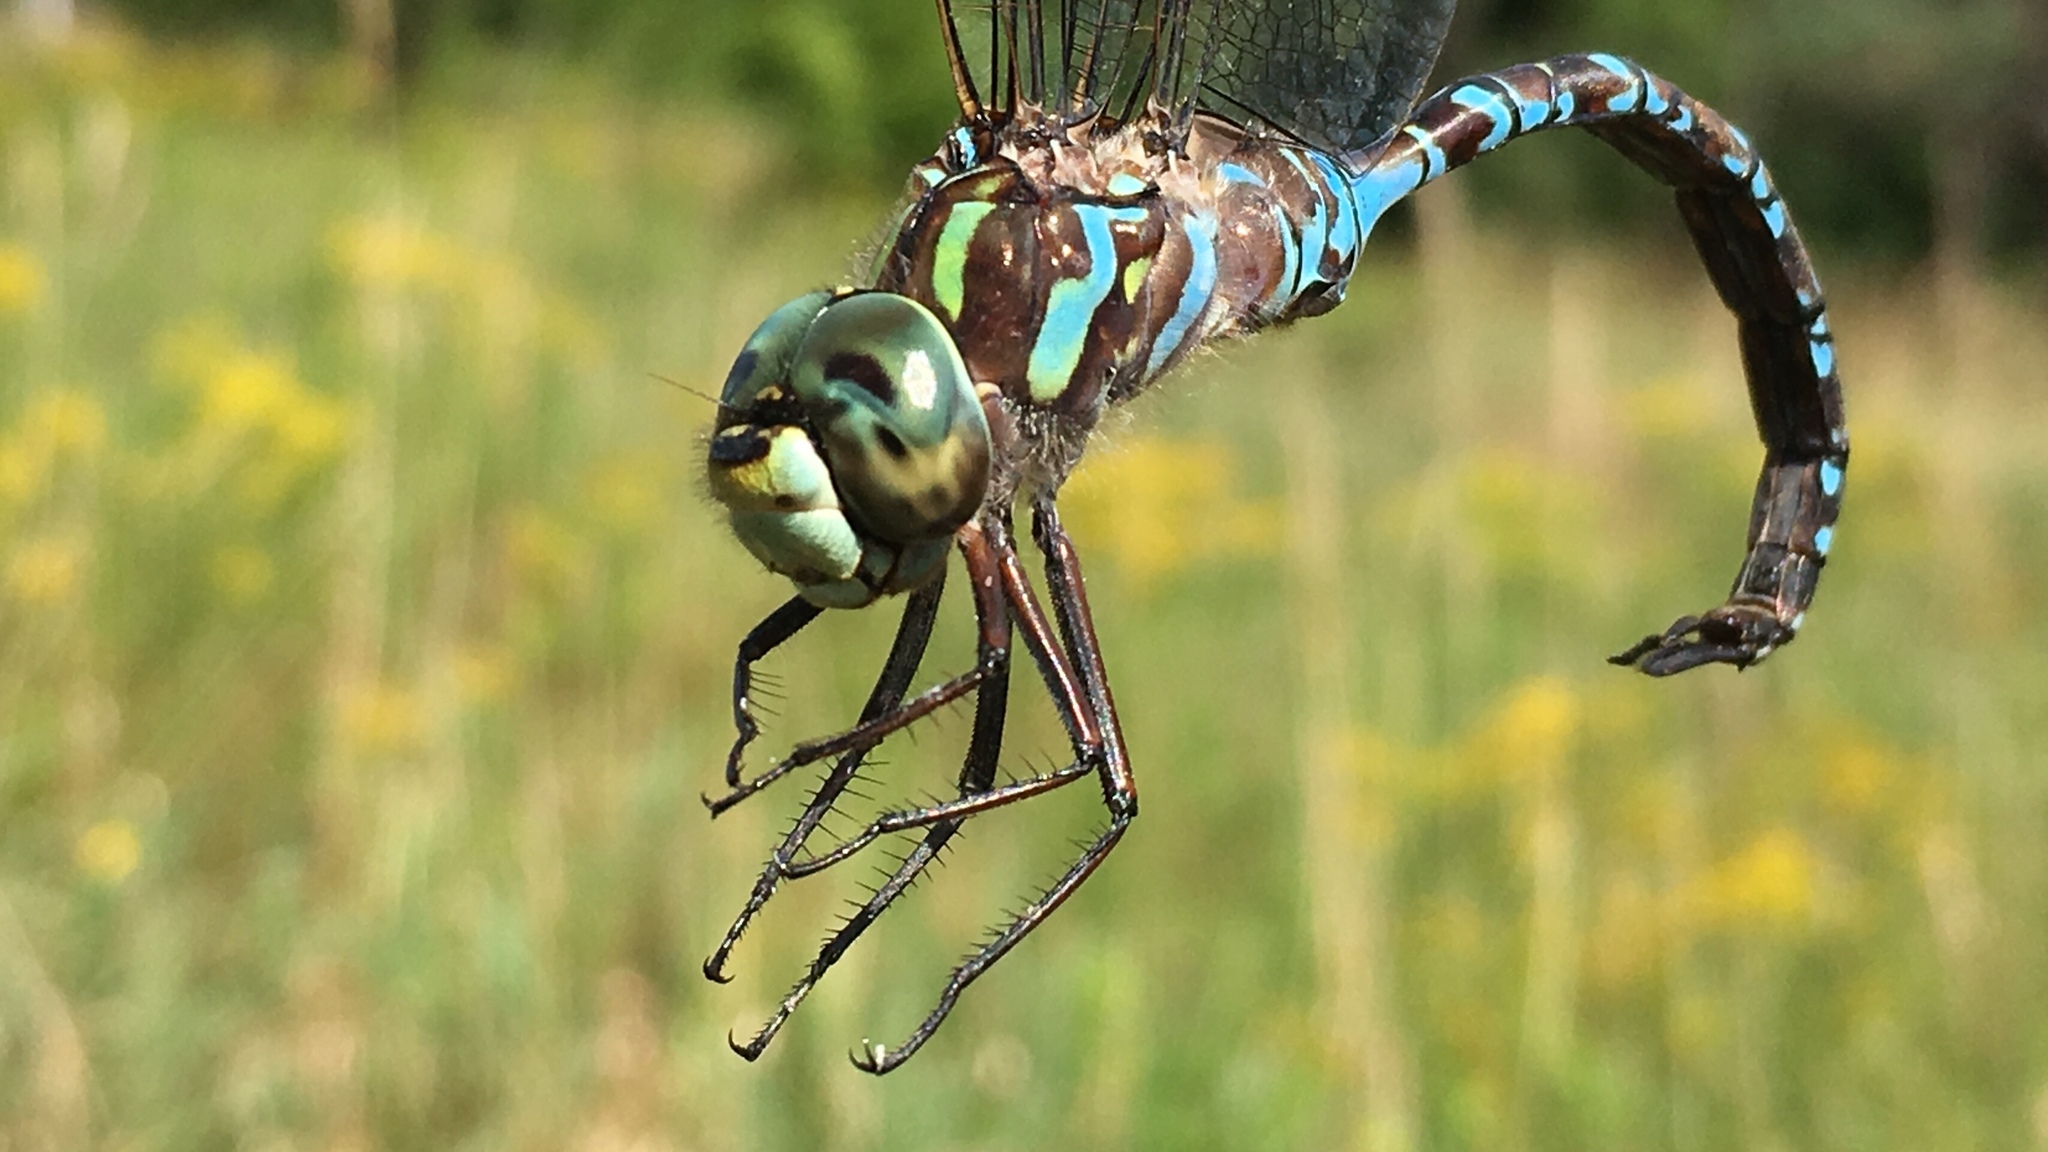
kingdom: Animalia
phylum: Arthropoda
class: Insecta
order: Odonata
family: Aeshnidae
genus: Aeshna
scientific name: Aeshna canadensis
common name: Canada darner
